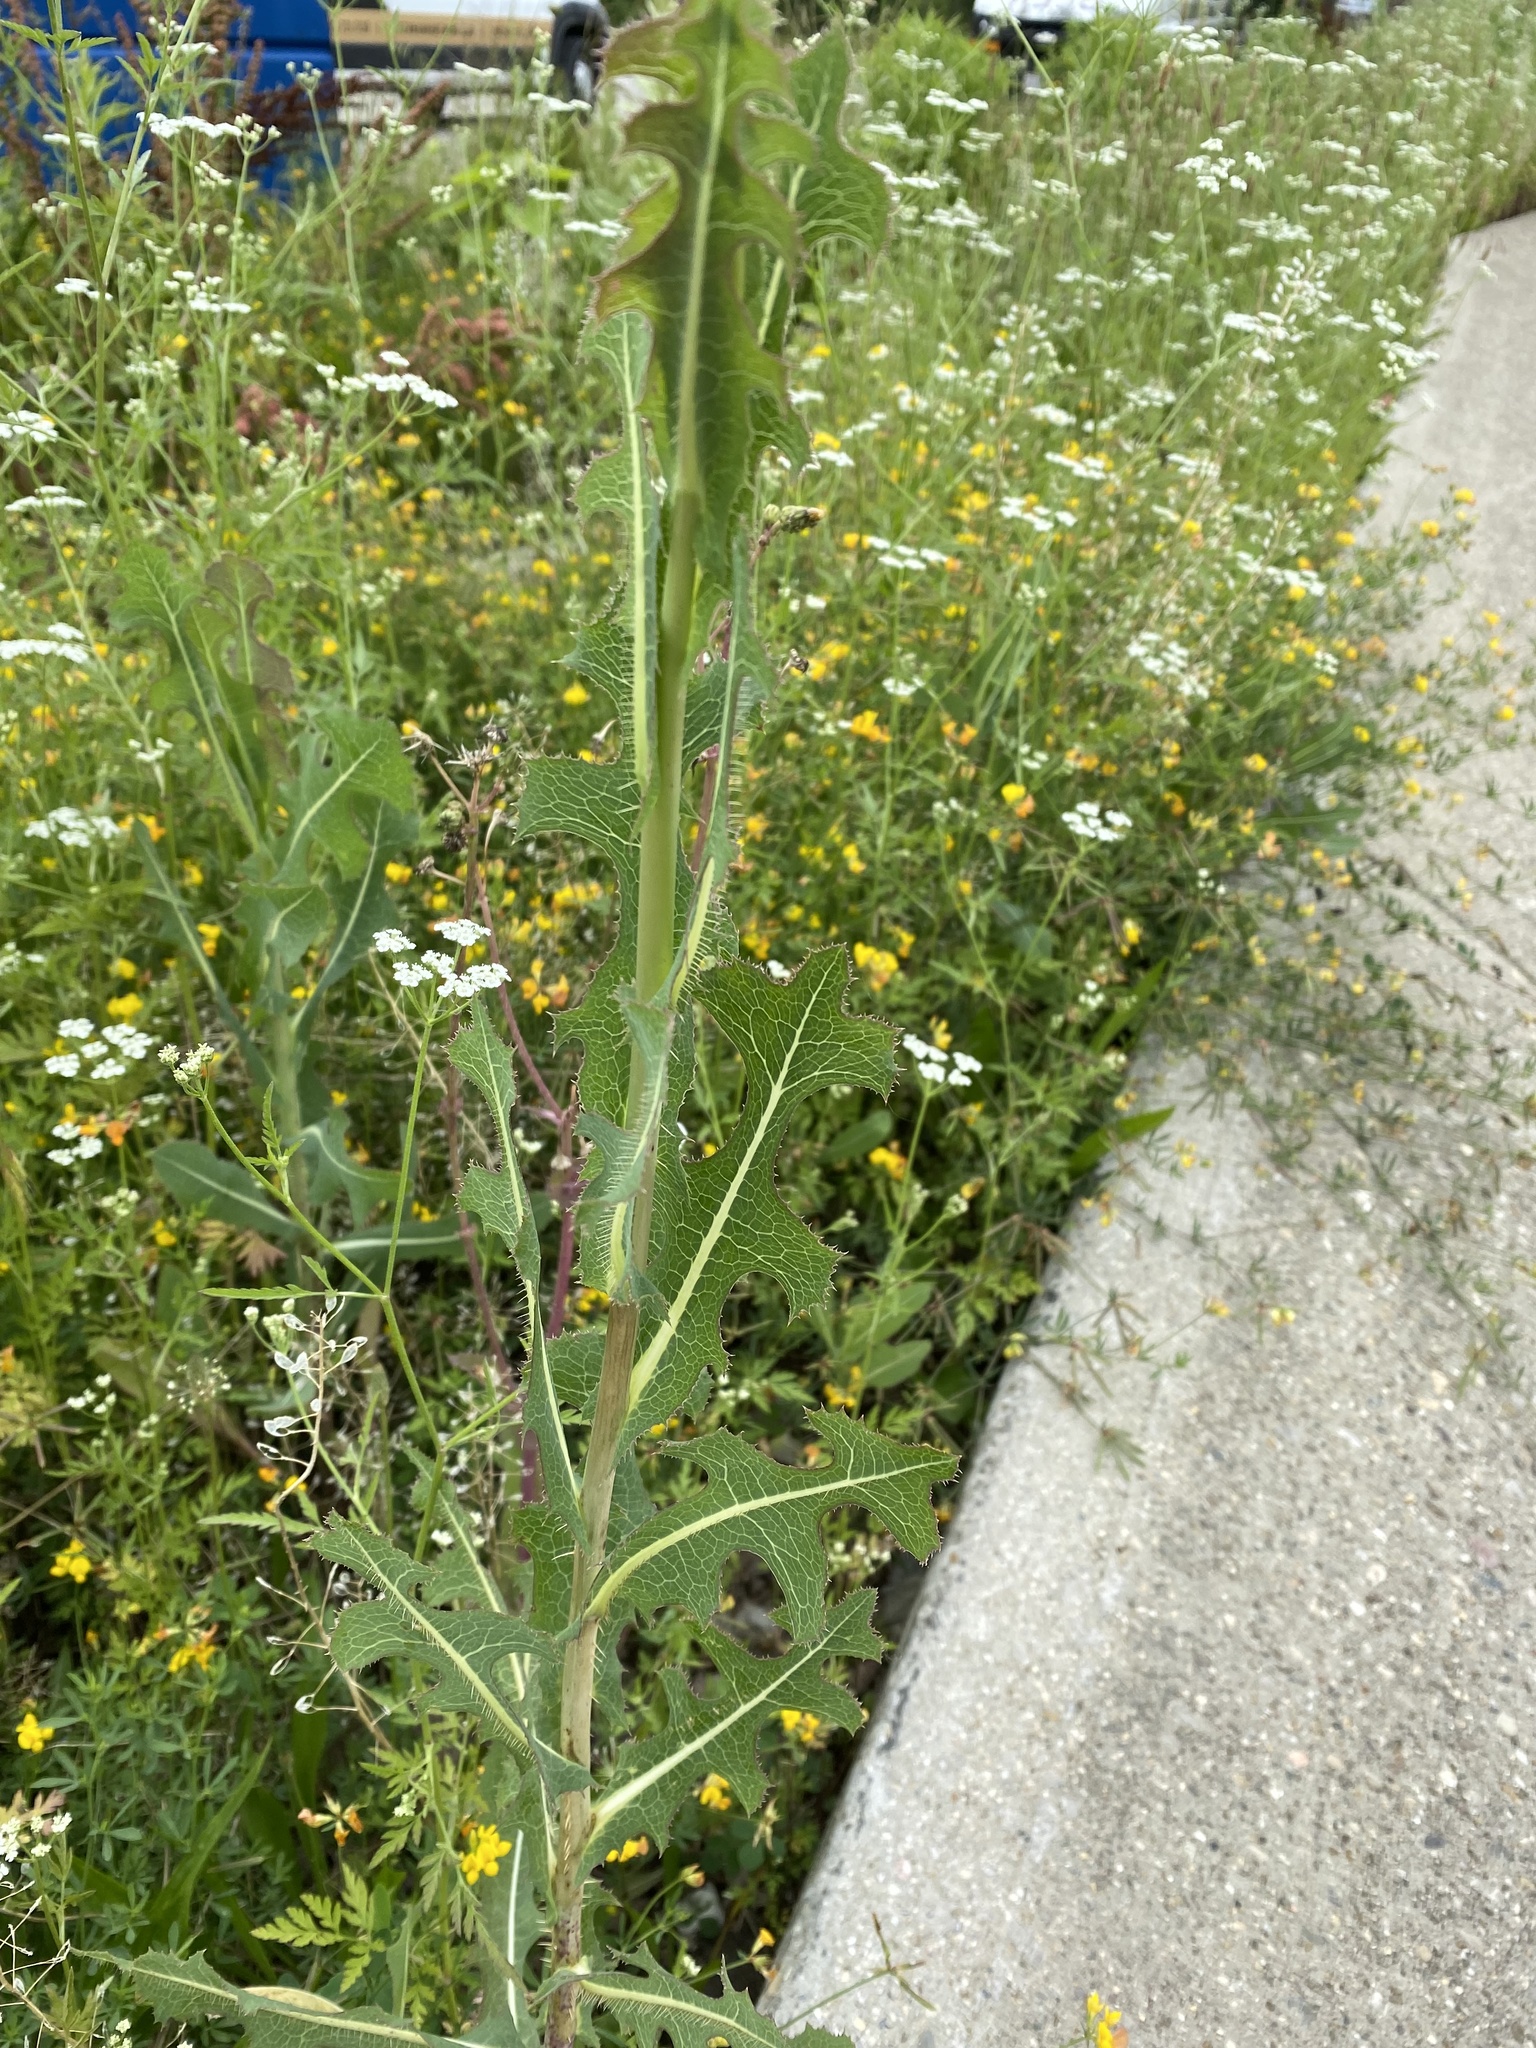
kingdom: Plantae
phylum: Tracheophyta
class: Magnoliopsida
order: Asterales
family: Asteraceae
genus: Lactuca
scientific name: Lactuca serriola
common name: Prickly lettuce
